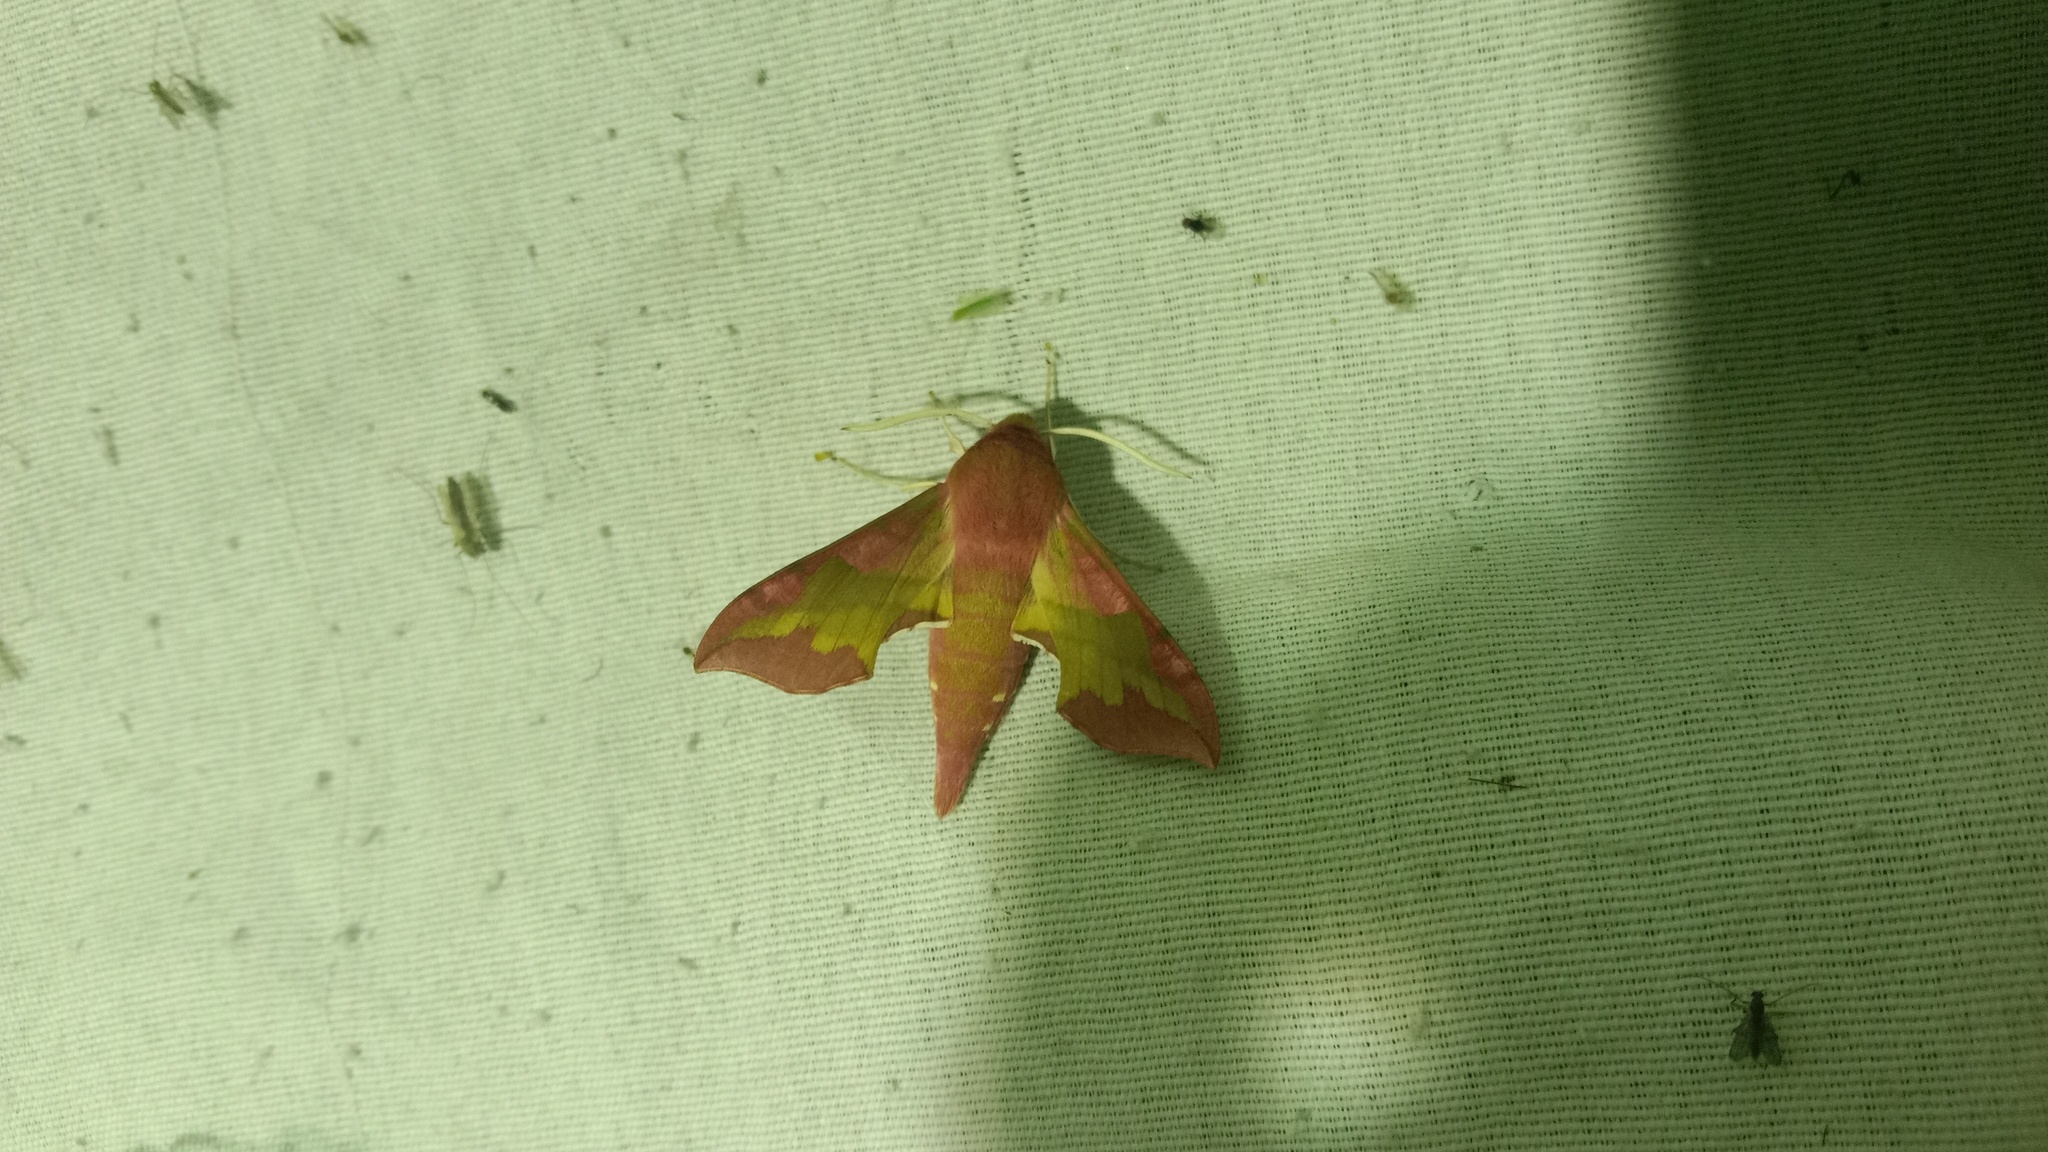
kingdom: Animalia
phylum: Arthropoda
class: Insecta
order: Lepidoptera
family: Sphingidae
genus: Deilephila
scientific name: Deilephila porcellus
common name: Small elephant hawk-moth
